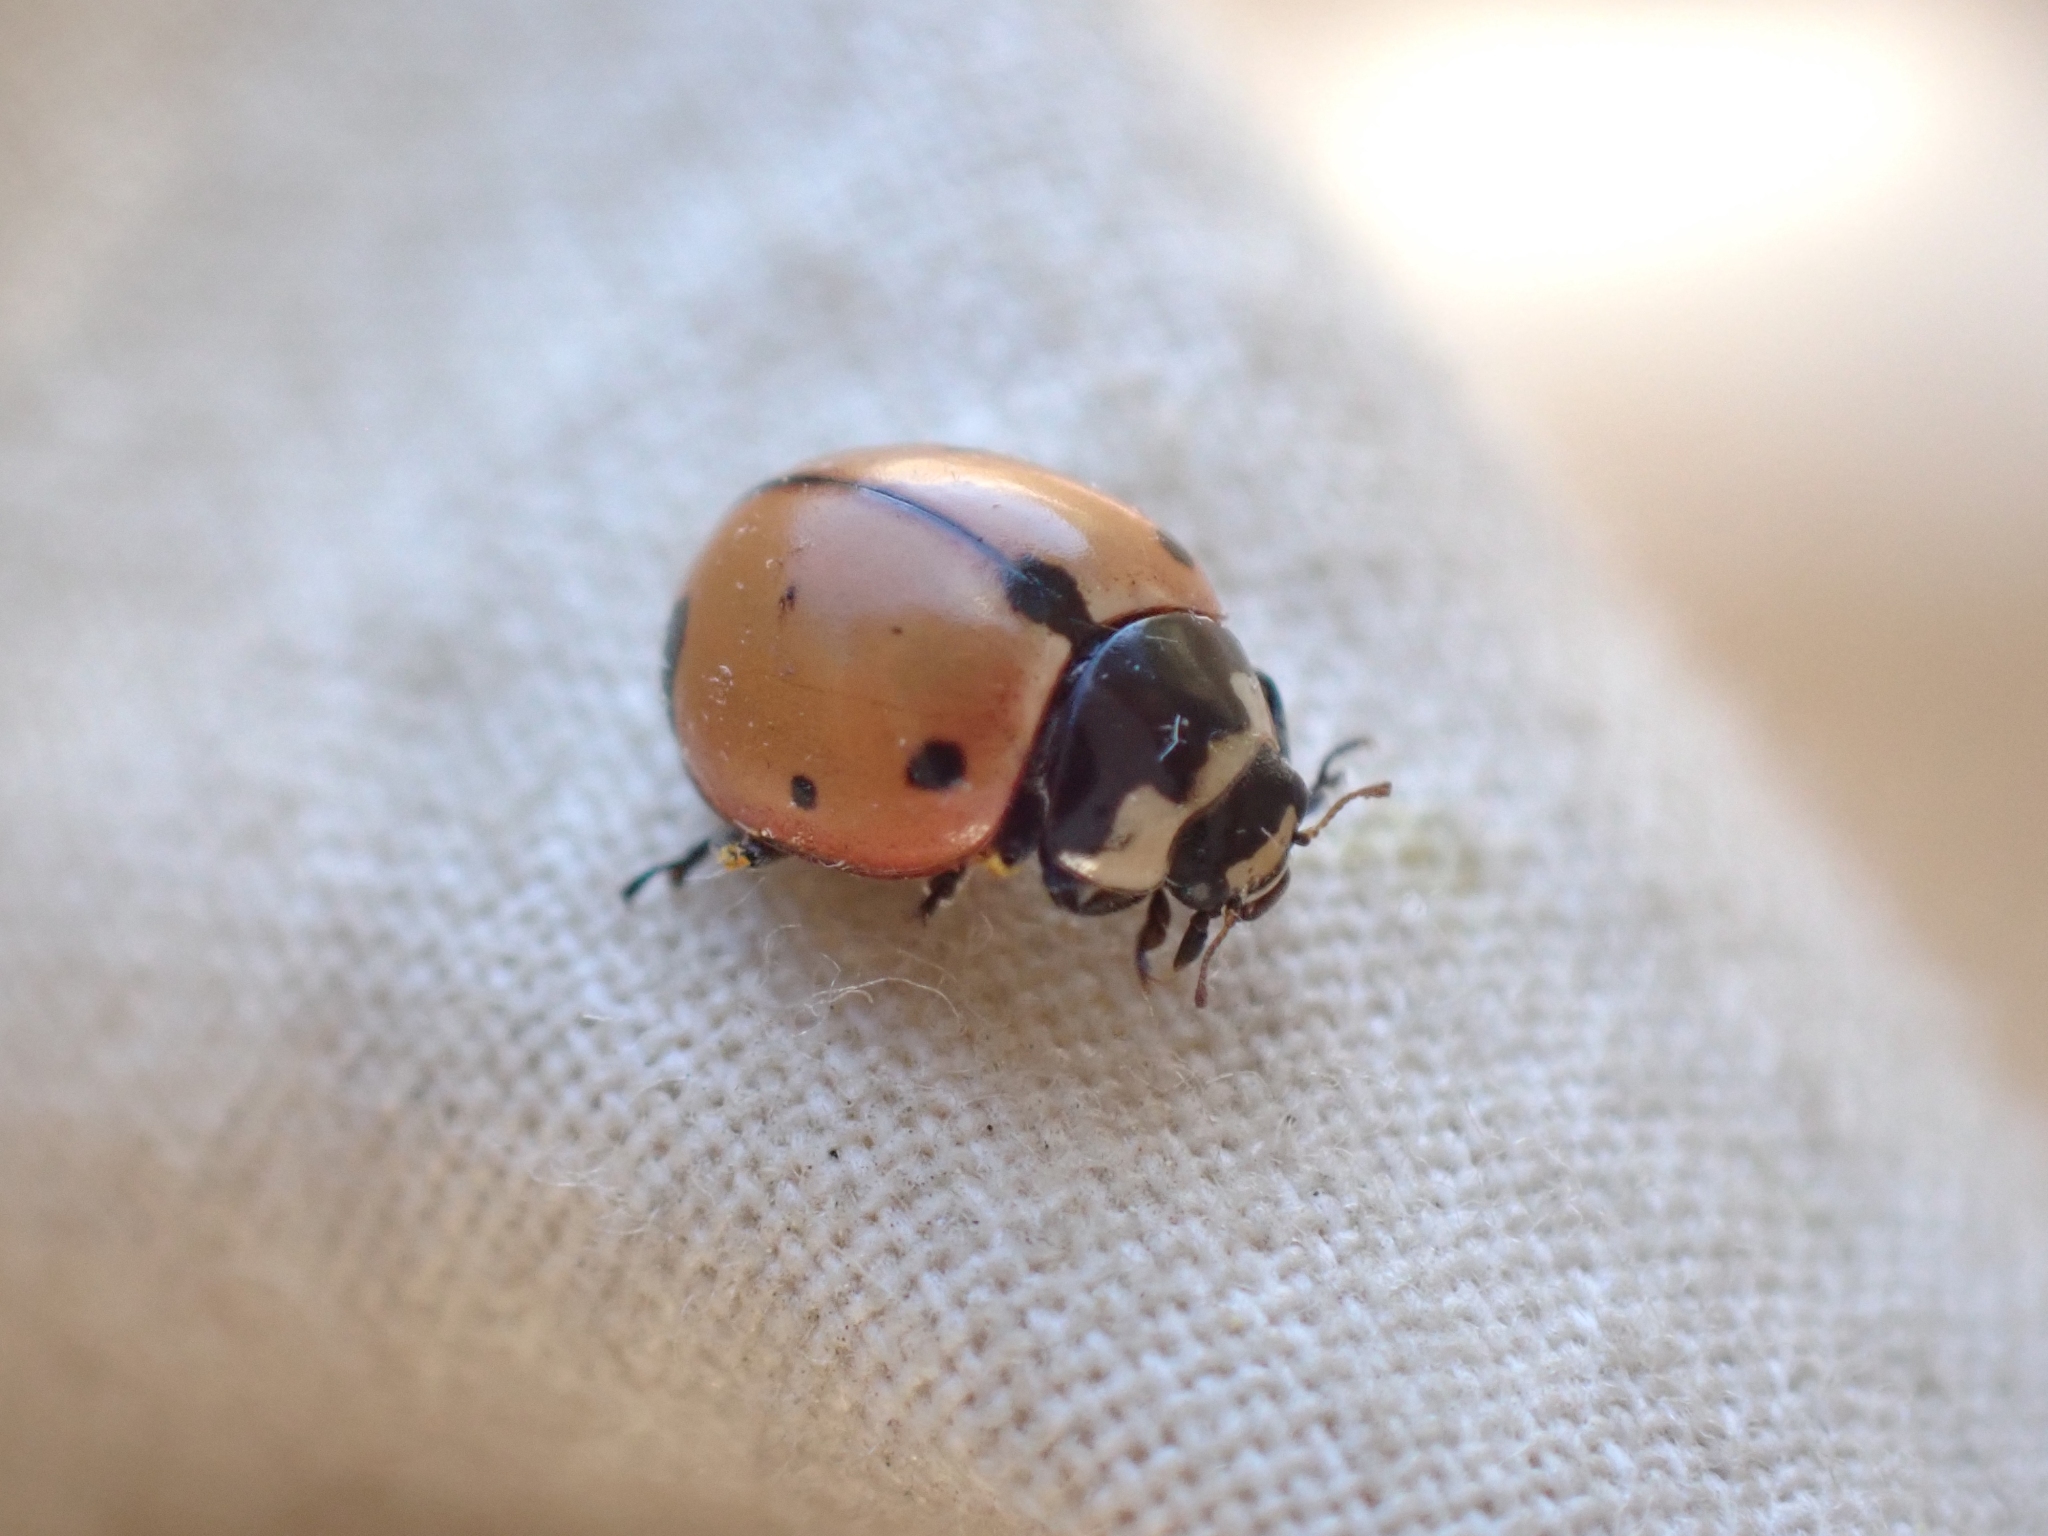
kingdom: Animalia
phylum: Arthropoda
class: Insecta
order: Coleoptera
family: Coccinellidae
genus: Coccinella
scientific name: Coccinella novemnotata
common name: Nine-spotted lady beetle
